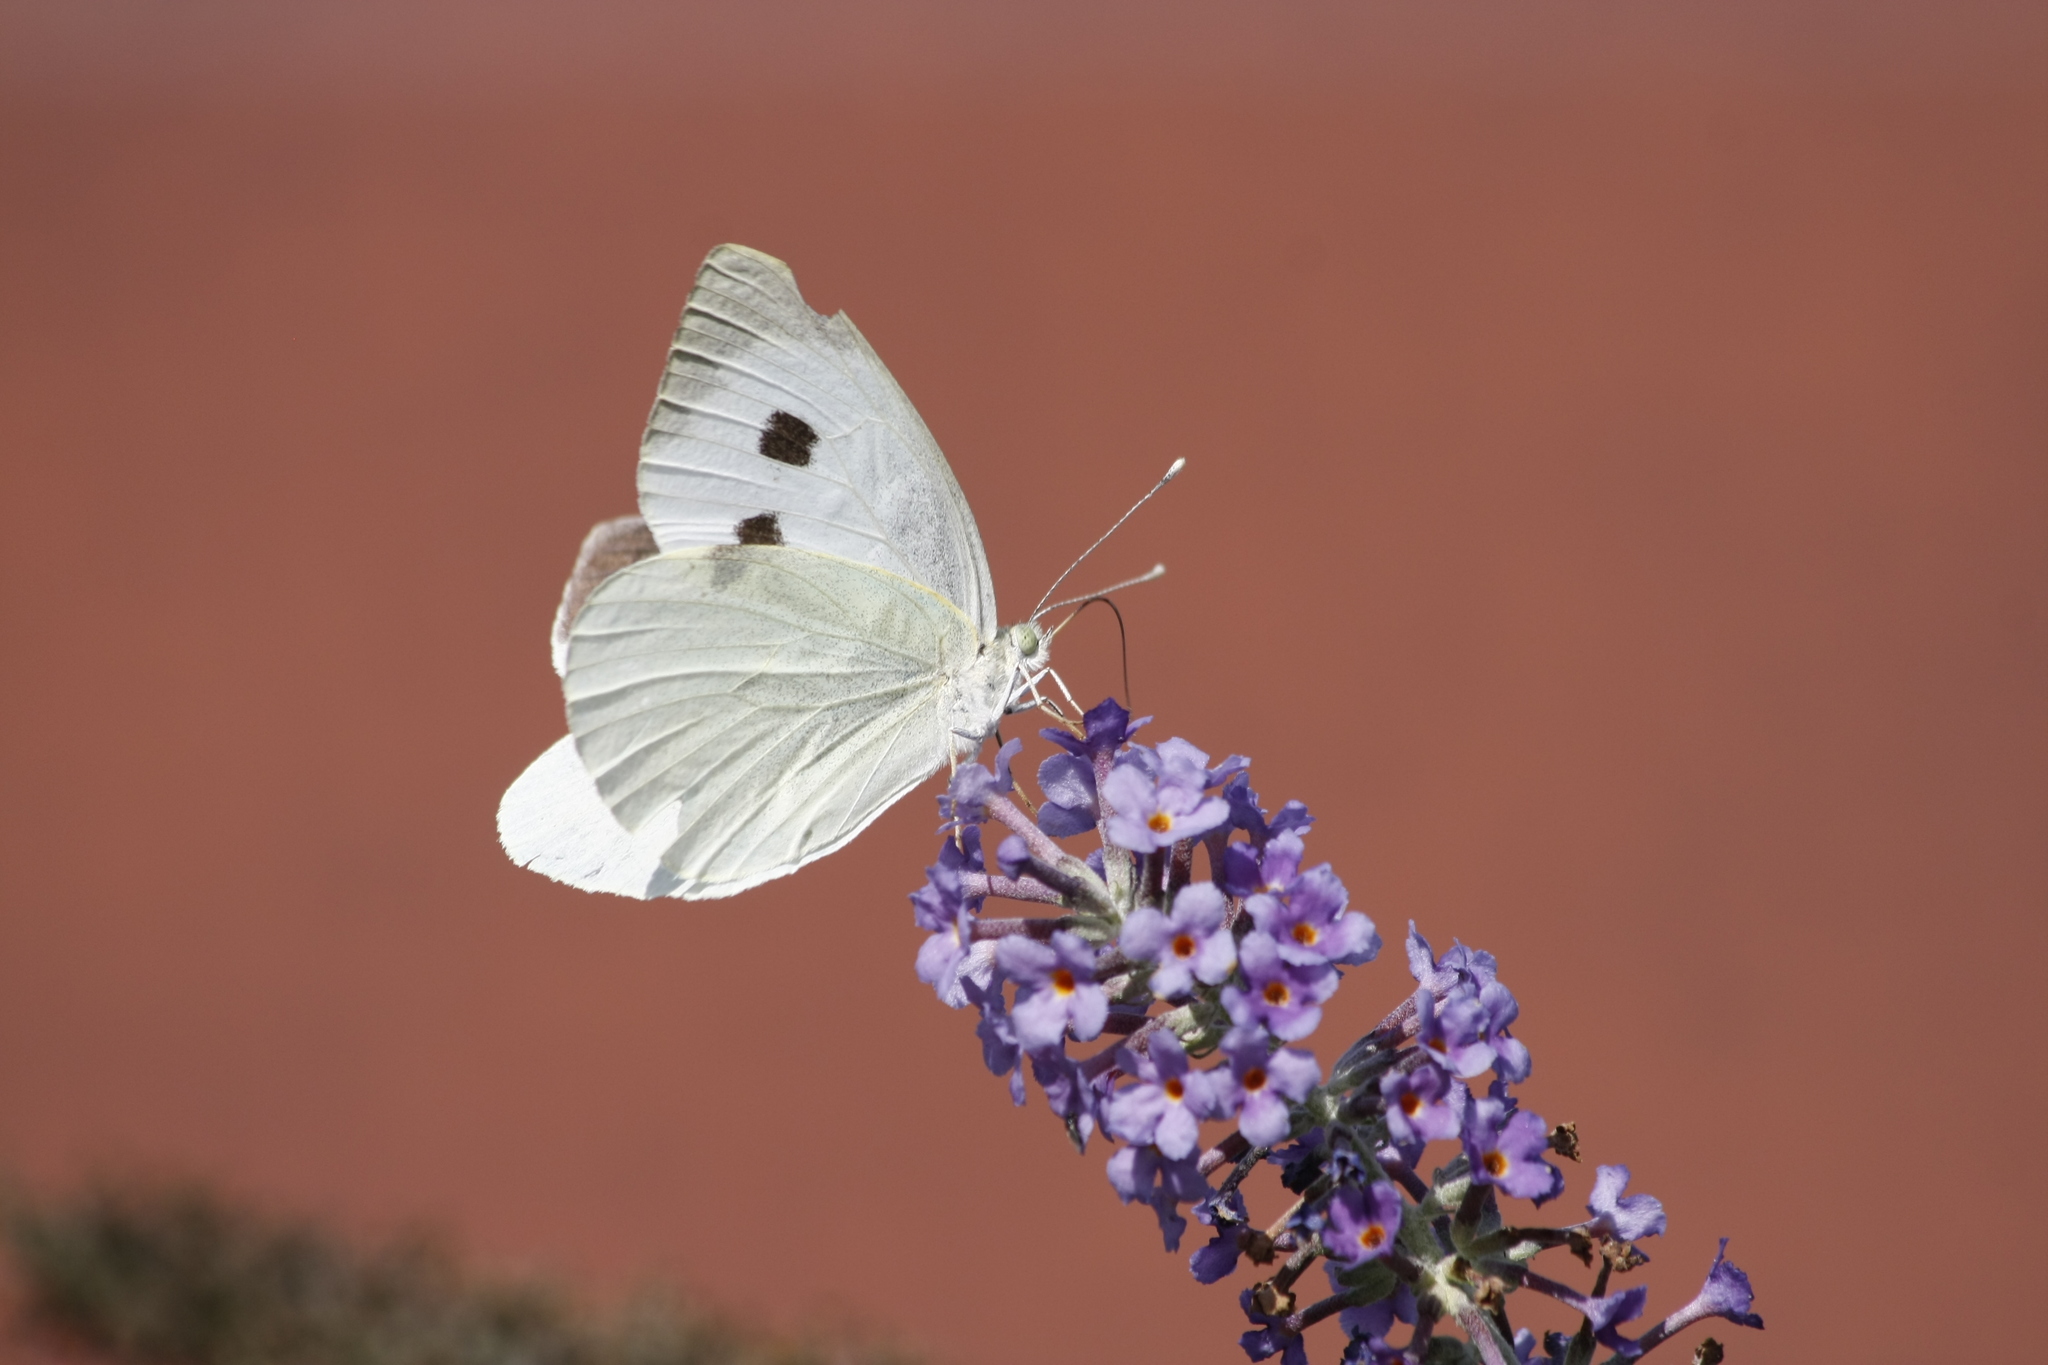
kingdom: Animalia
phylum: Arthropoda
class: Insecta
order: Lepidoptera
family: Pieridae
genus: Pieris
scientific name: Pieris brassicae
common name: Large white
